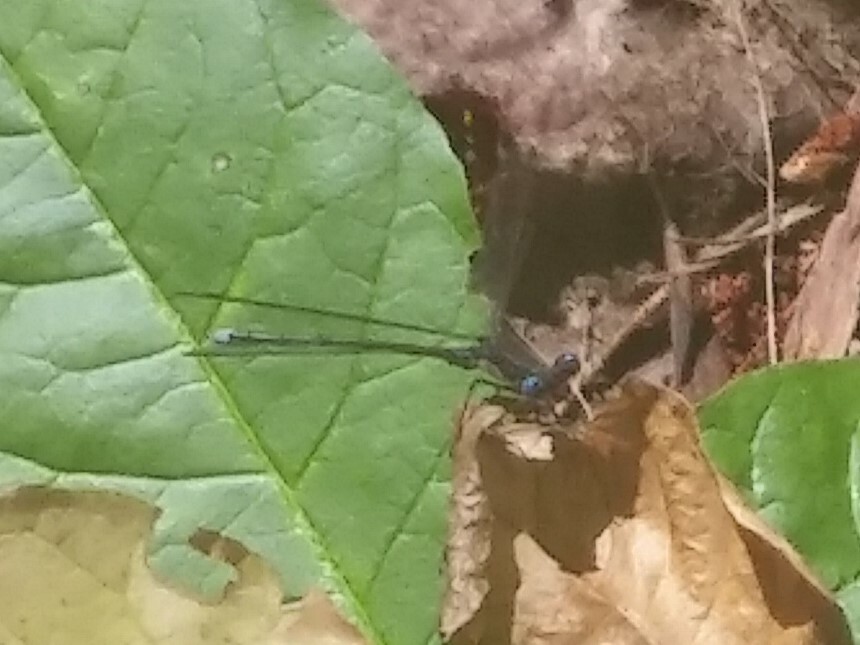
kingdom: Animalia
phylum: Arthropoda
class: Insecta
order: Odonata
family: Lestidae
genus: Lestes
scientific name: Lestes congener
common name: Spotted spreadwing
